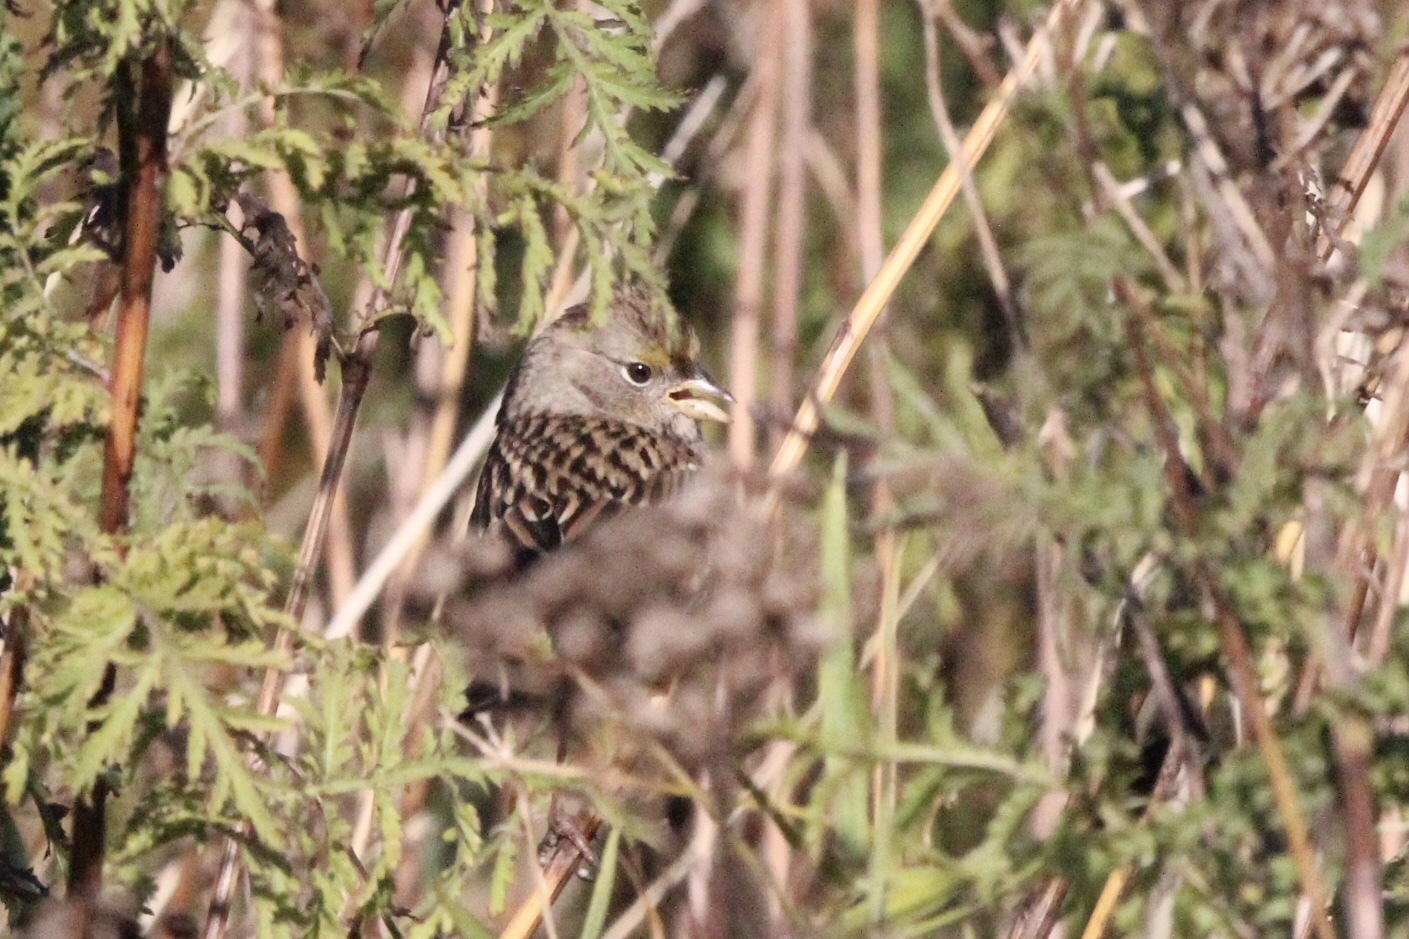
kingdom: Animalia
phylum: Chordata
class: Aves
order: Passeriformes
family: Passerellidae
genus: Zonotrichia
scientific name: Zonotrichia atricapilla
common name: Golden-crowned sparrow
